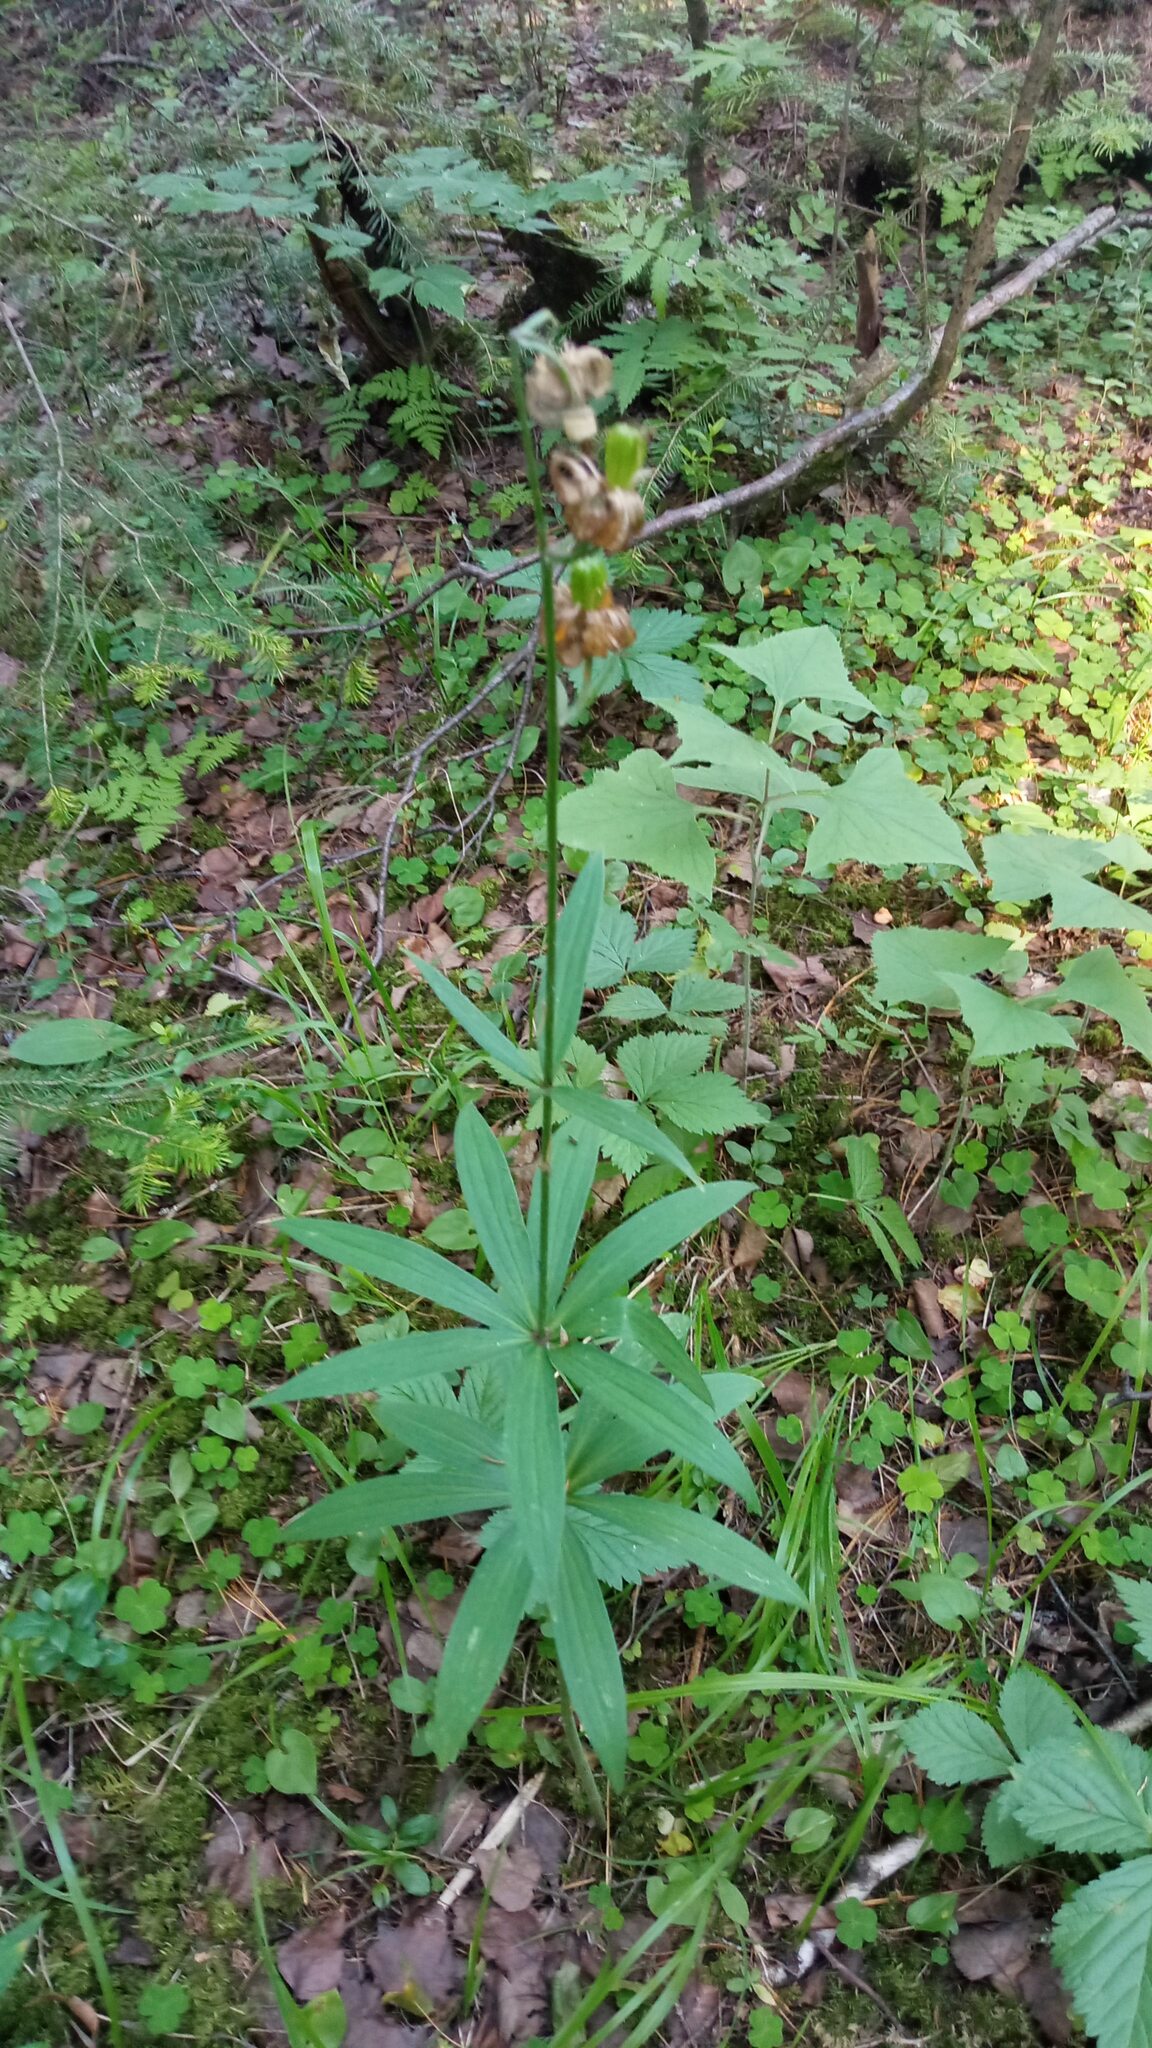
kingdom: Plantae
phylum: Tracheophyta
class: Liliopsida
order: Liliales
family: Liliaceae
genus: Lilium
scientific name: Lilium martagon
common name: Martagon lily
